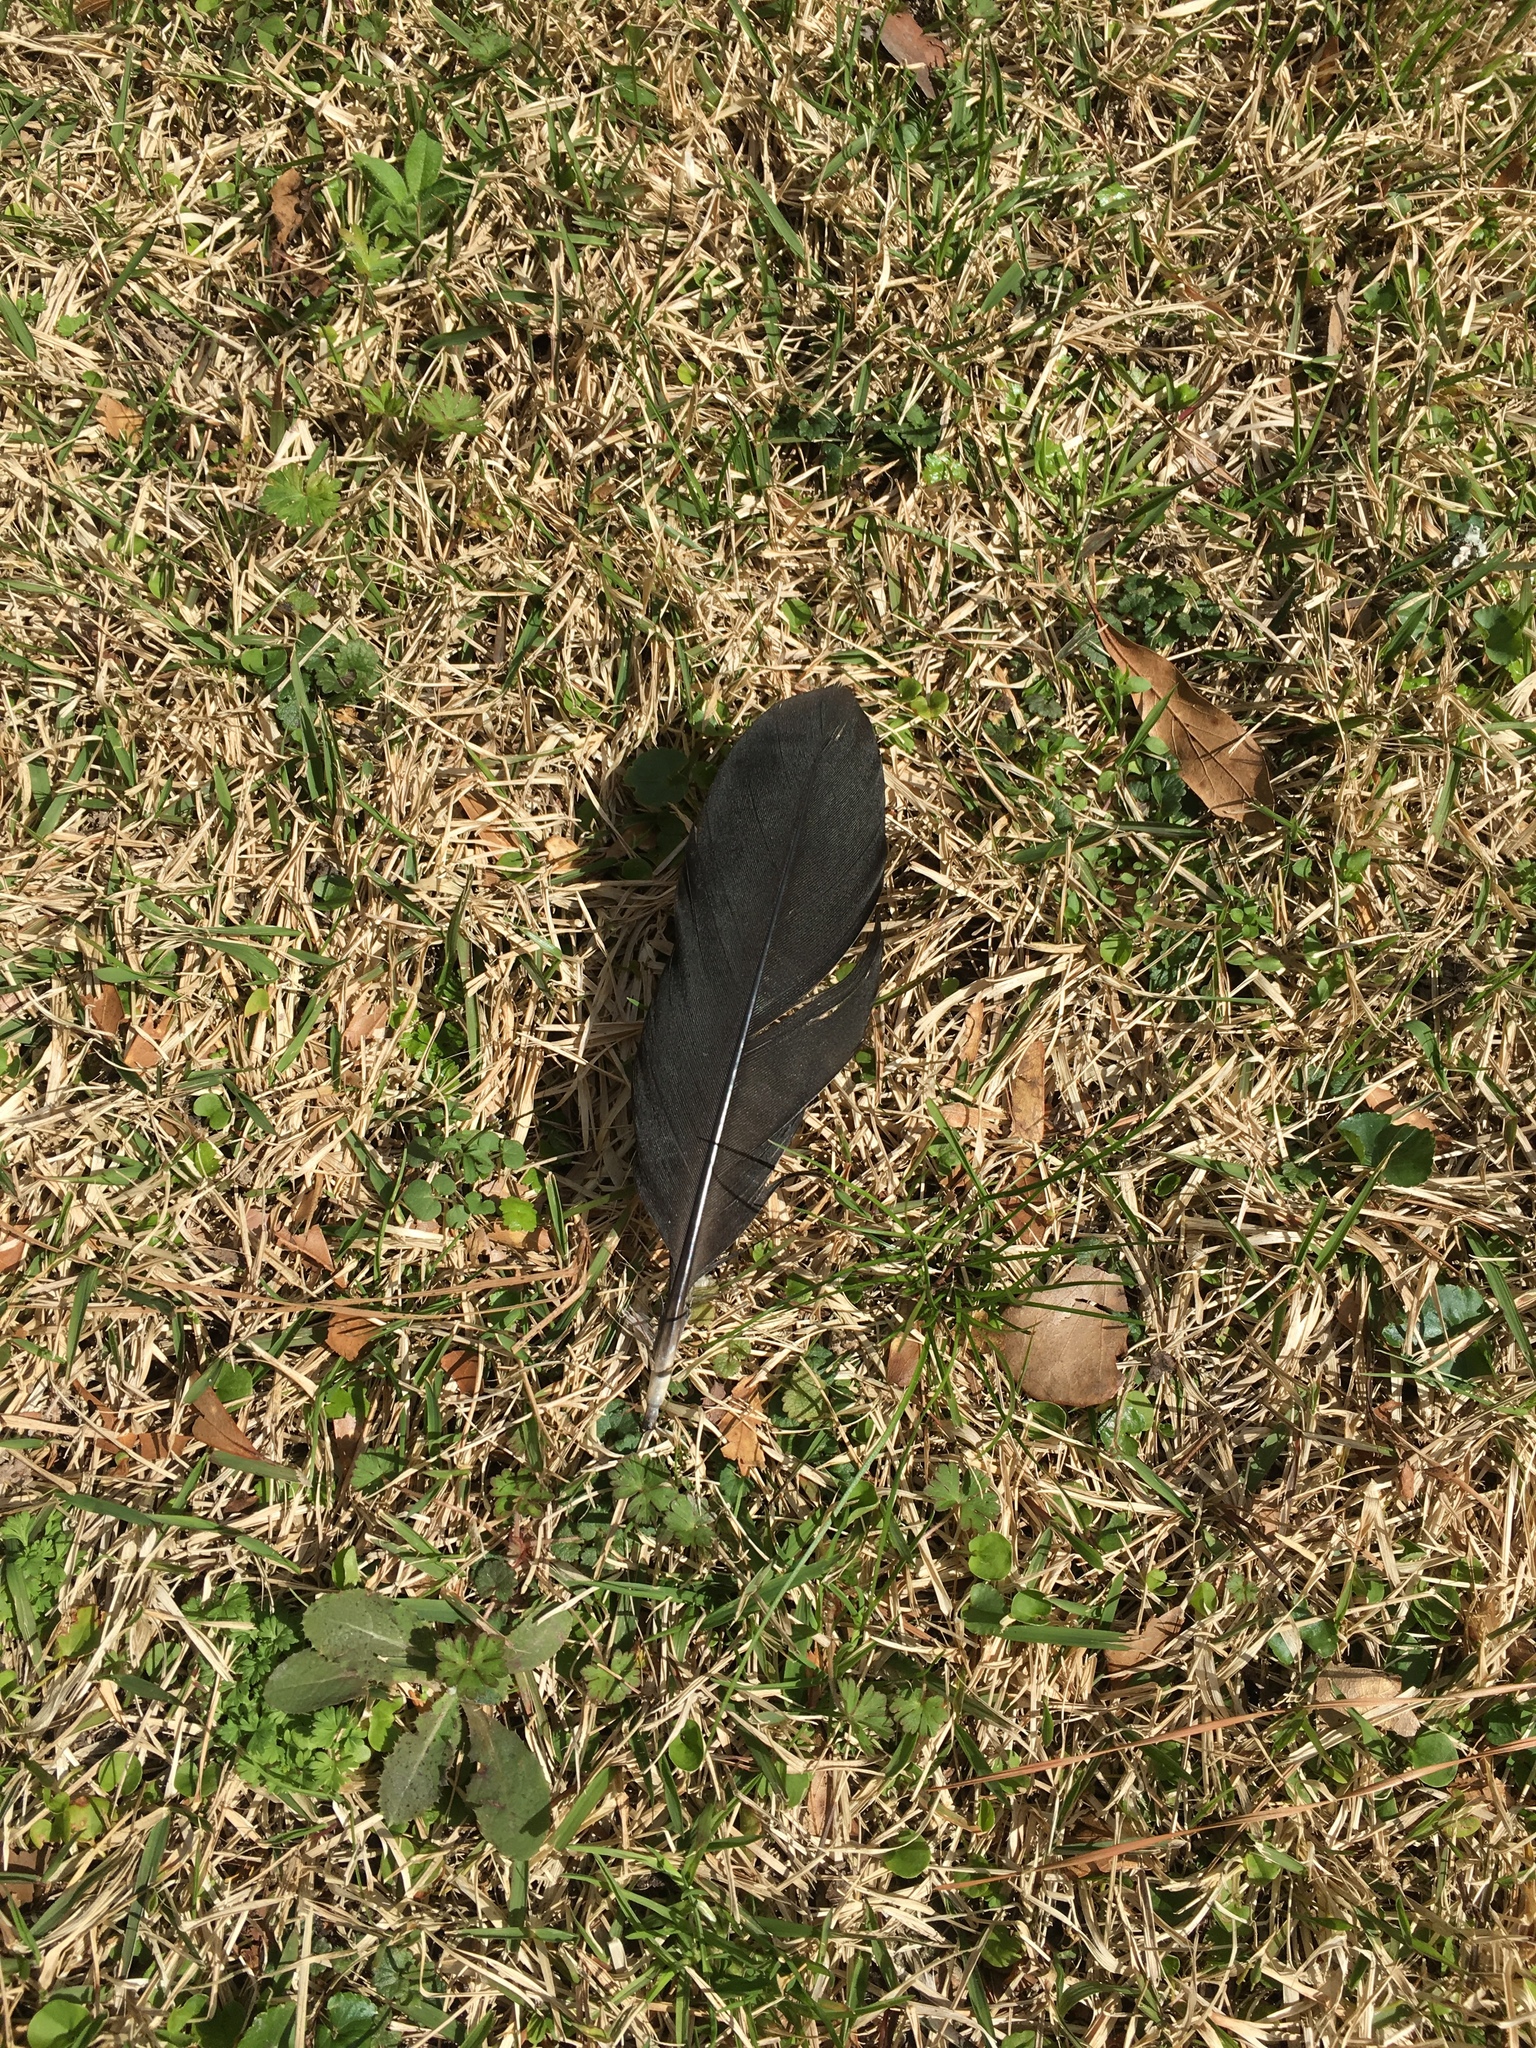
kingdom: Animalia
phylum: Chordata
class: Aves
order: Anseriformes
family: Anatidae
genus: Cairina
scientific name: Cairina moschata
